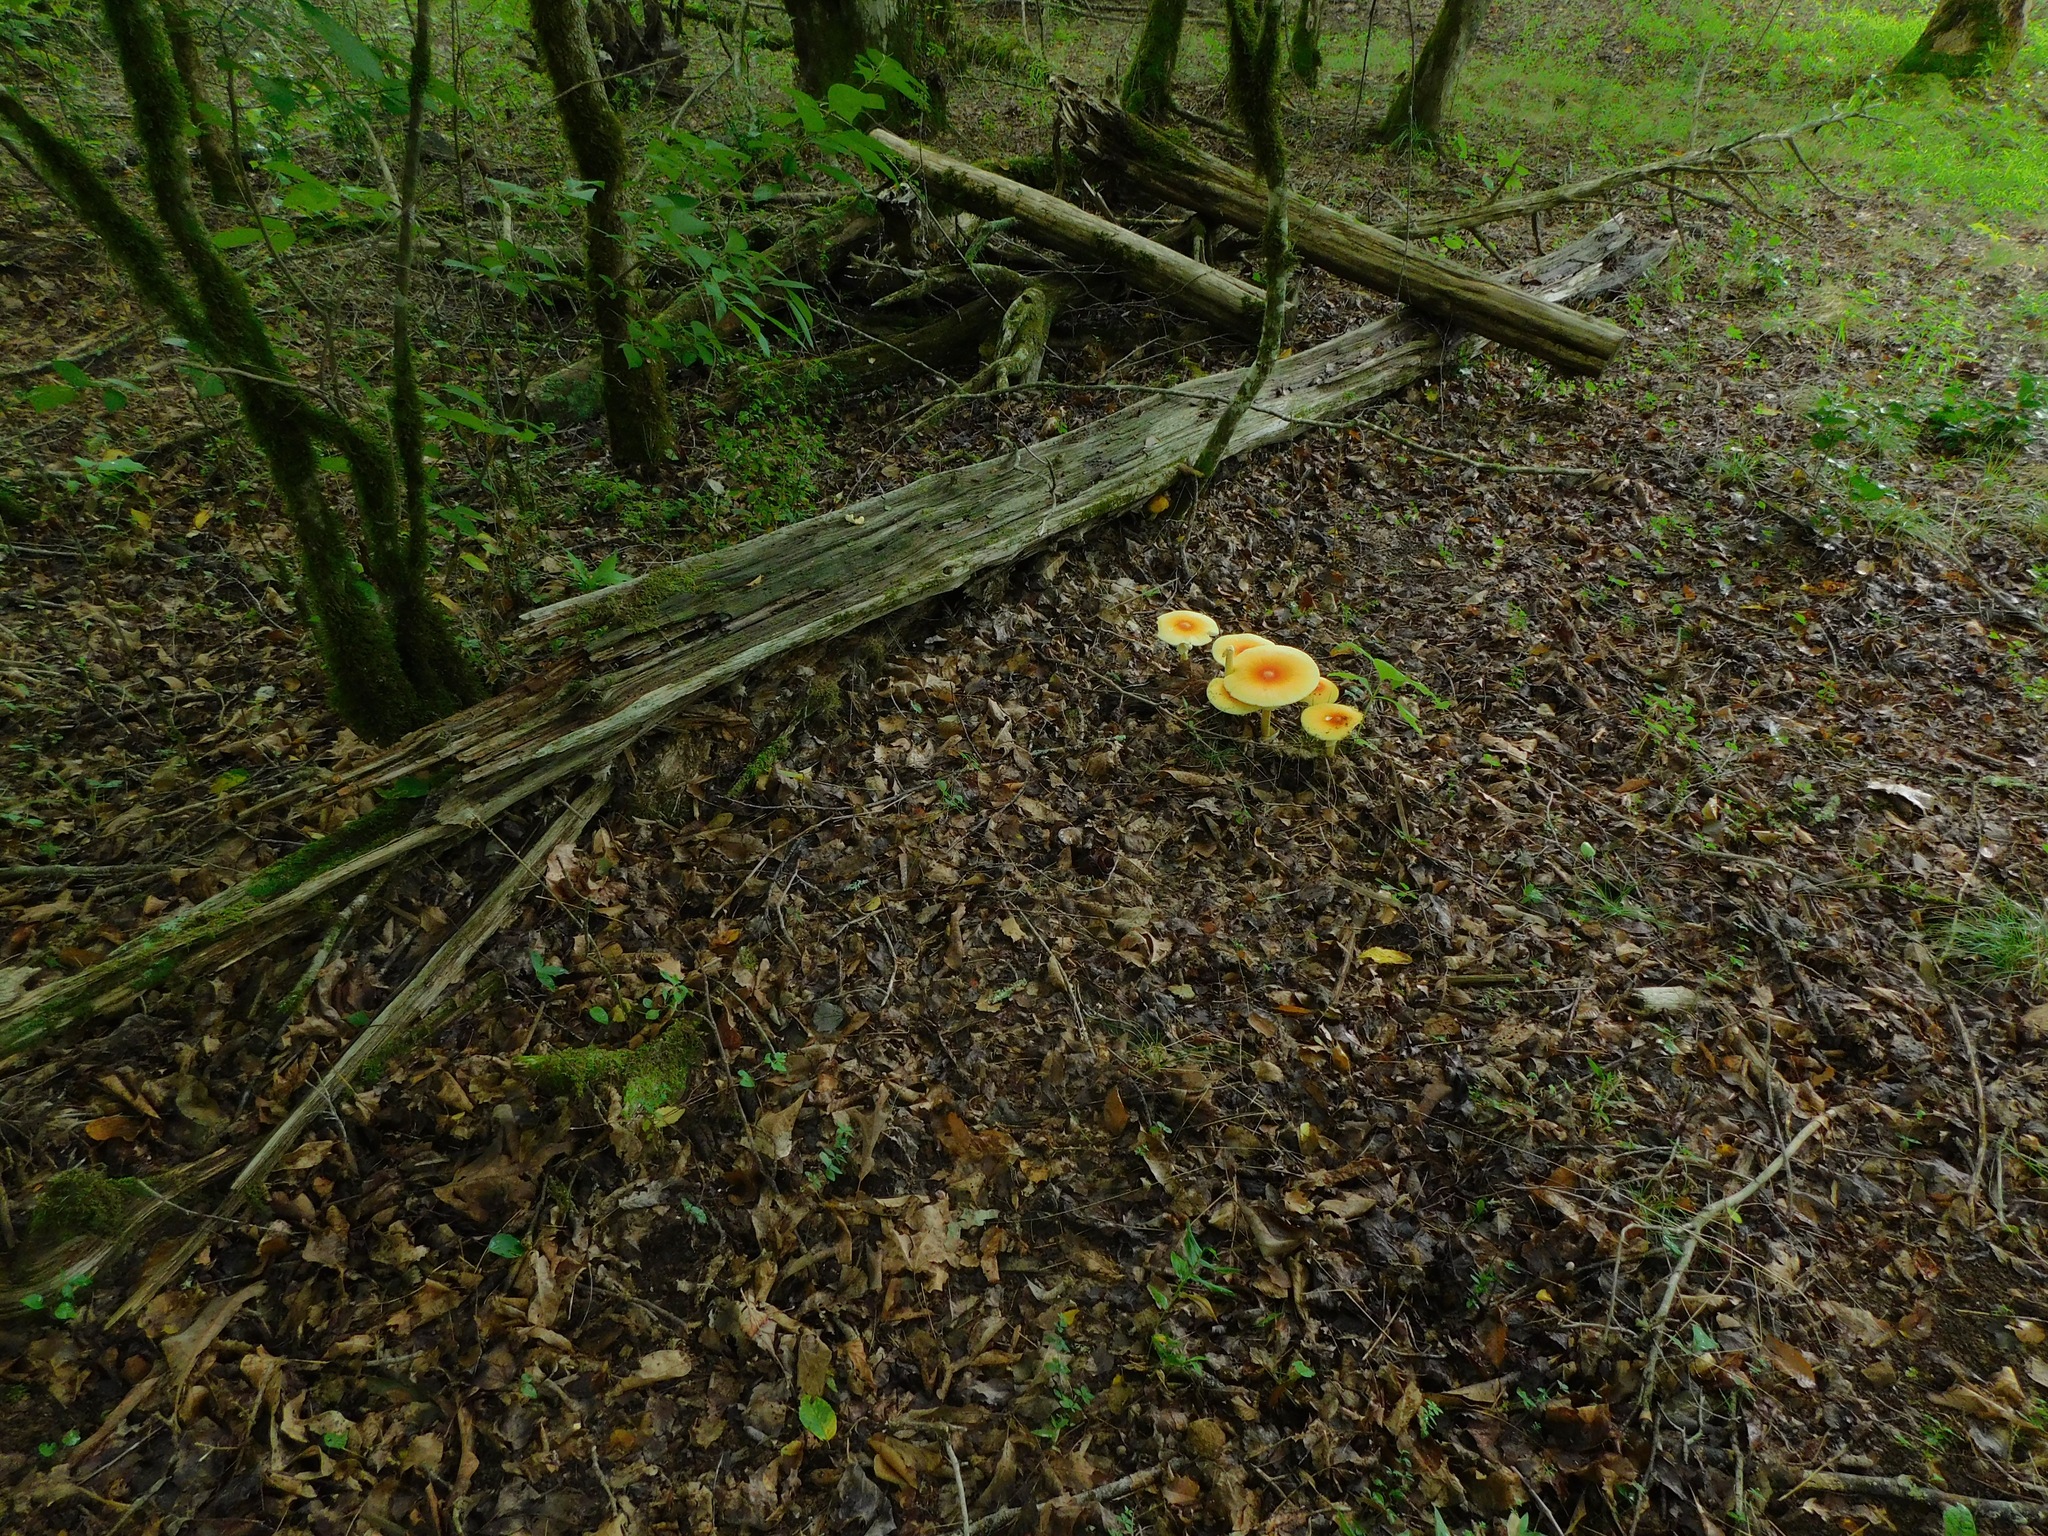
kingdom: Fungi
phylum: Basidiomycota
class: Agaricomycetes
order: Agaricales
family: Amanitaceae
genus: Amanita
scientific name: Amanita jacksonii
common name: Jackson's slender caesar
